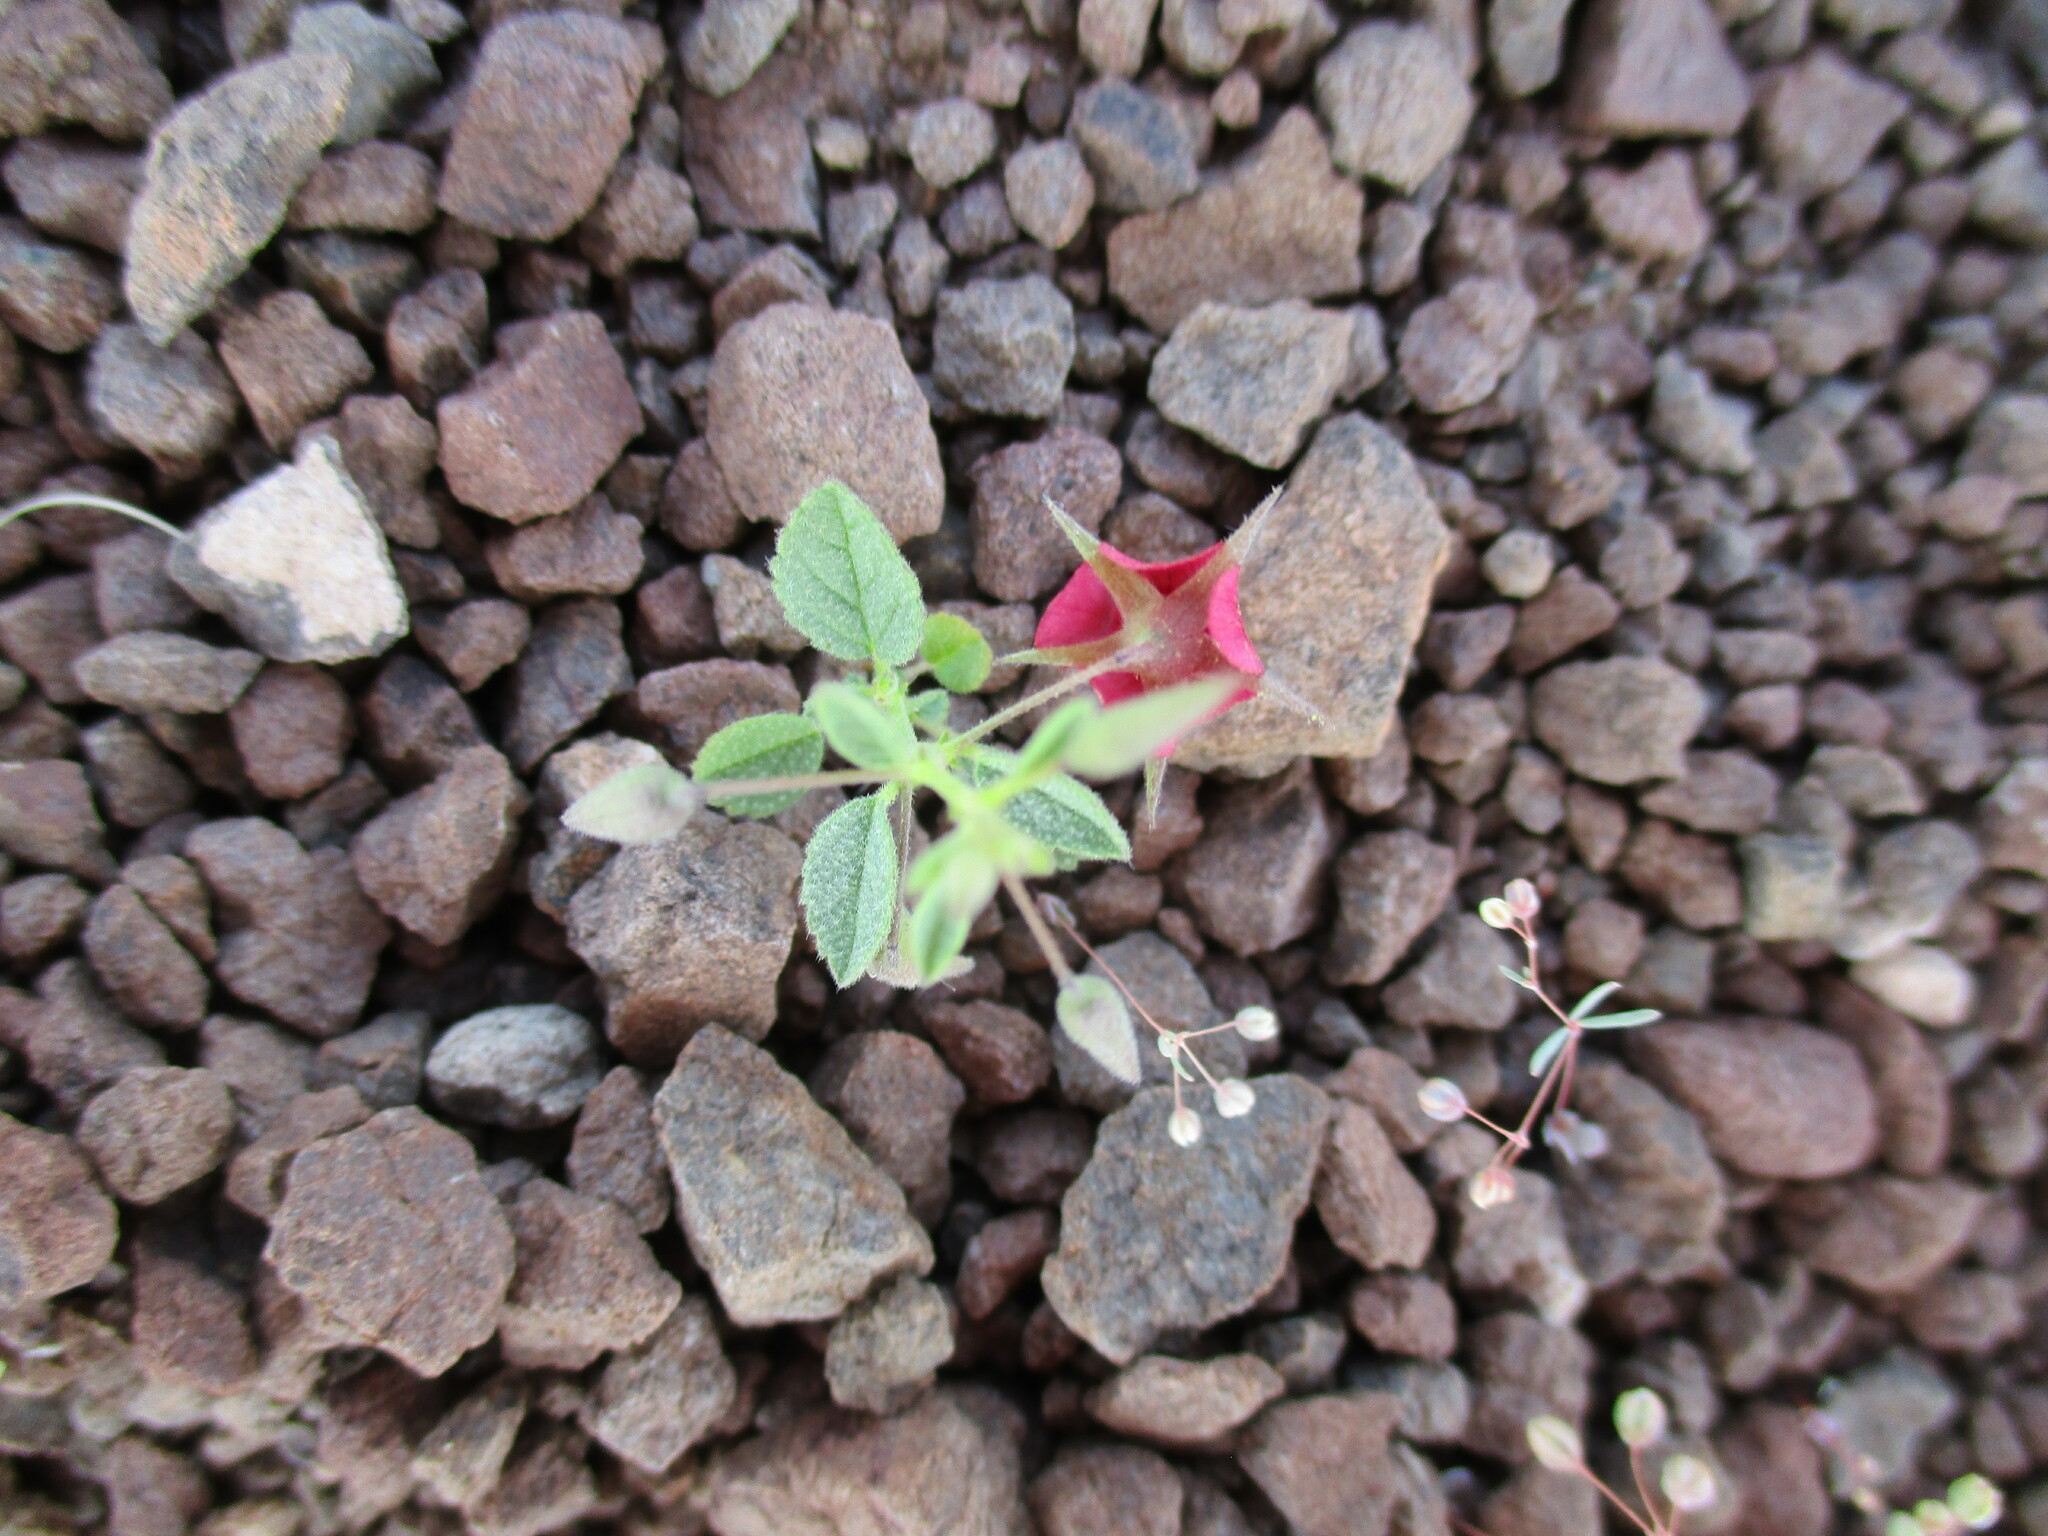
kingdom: Plantae
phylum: Tracheophyta
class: Magnoliopsida
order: Malvales
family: Malvaceae
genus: Hermannia
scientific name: Hermannia solaniflora
